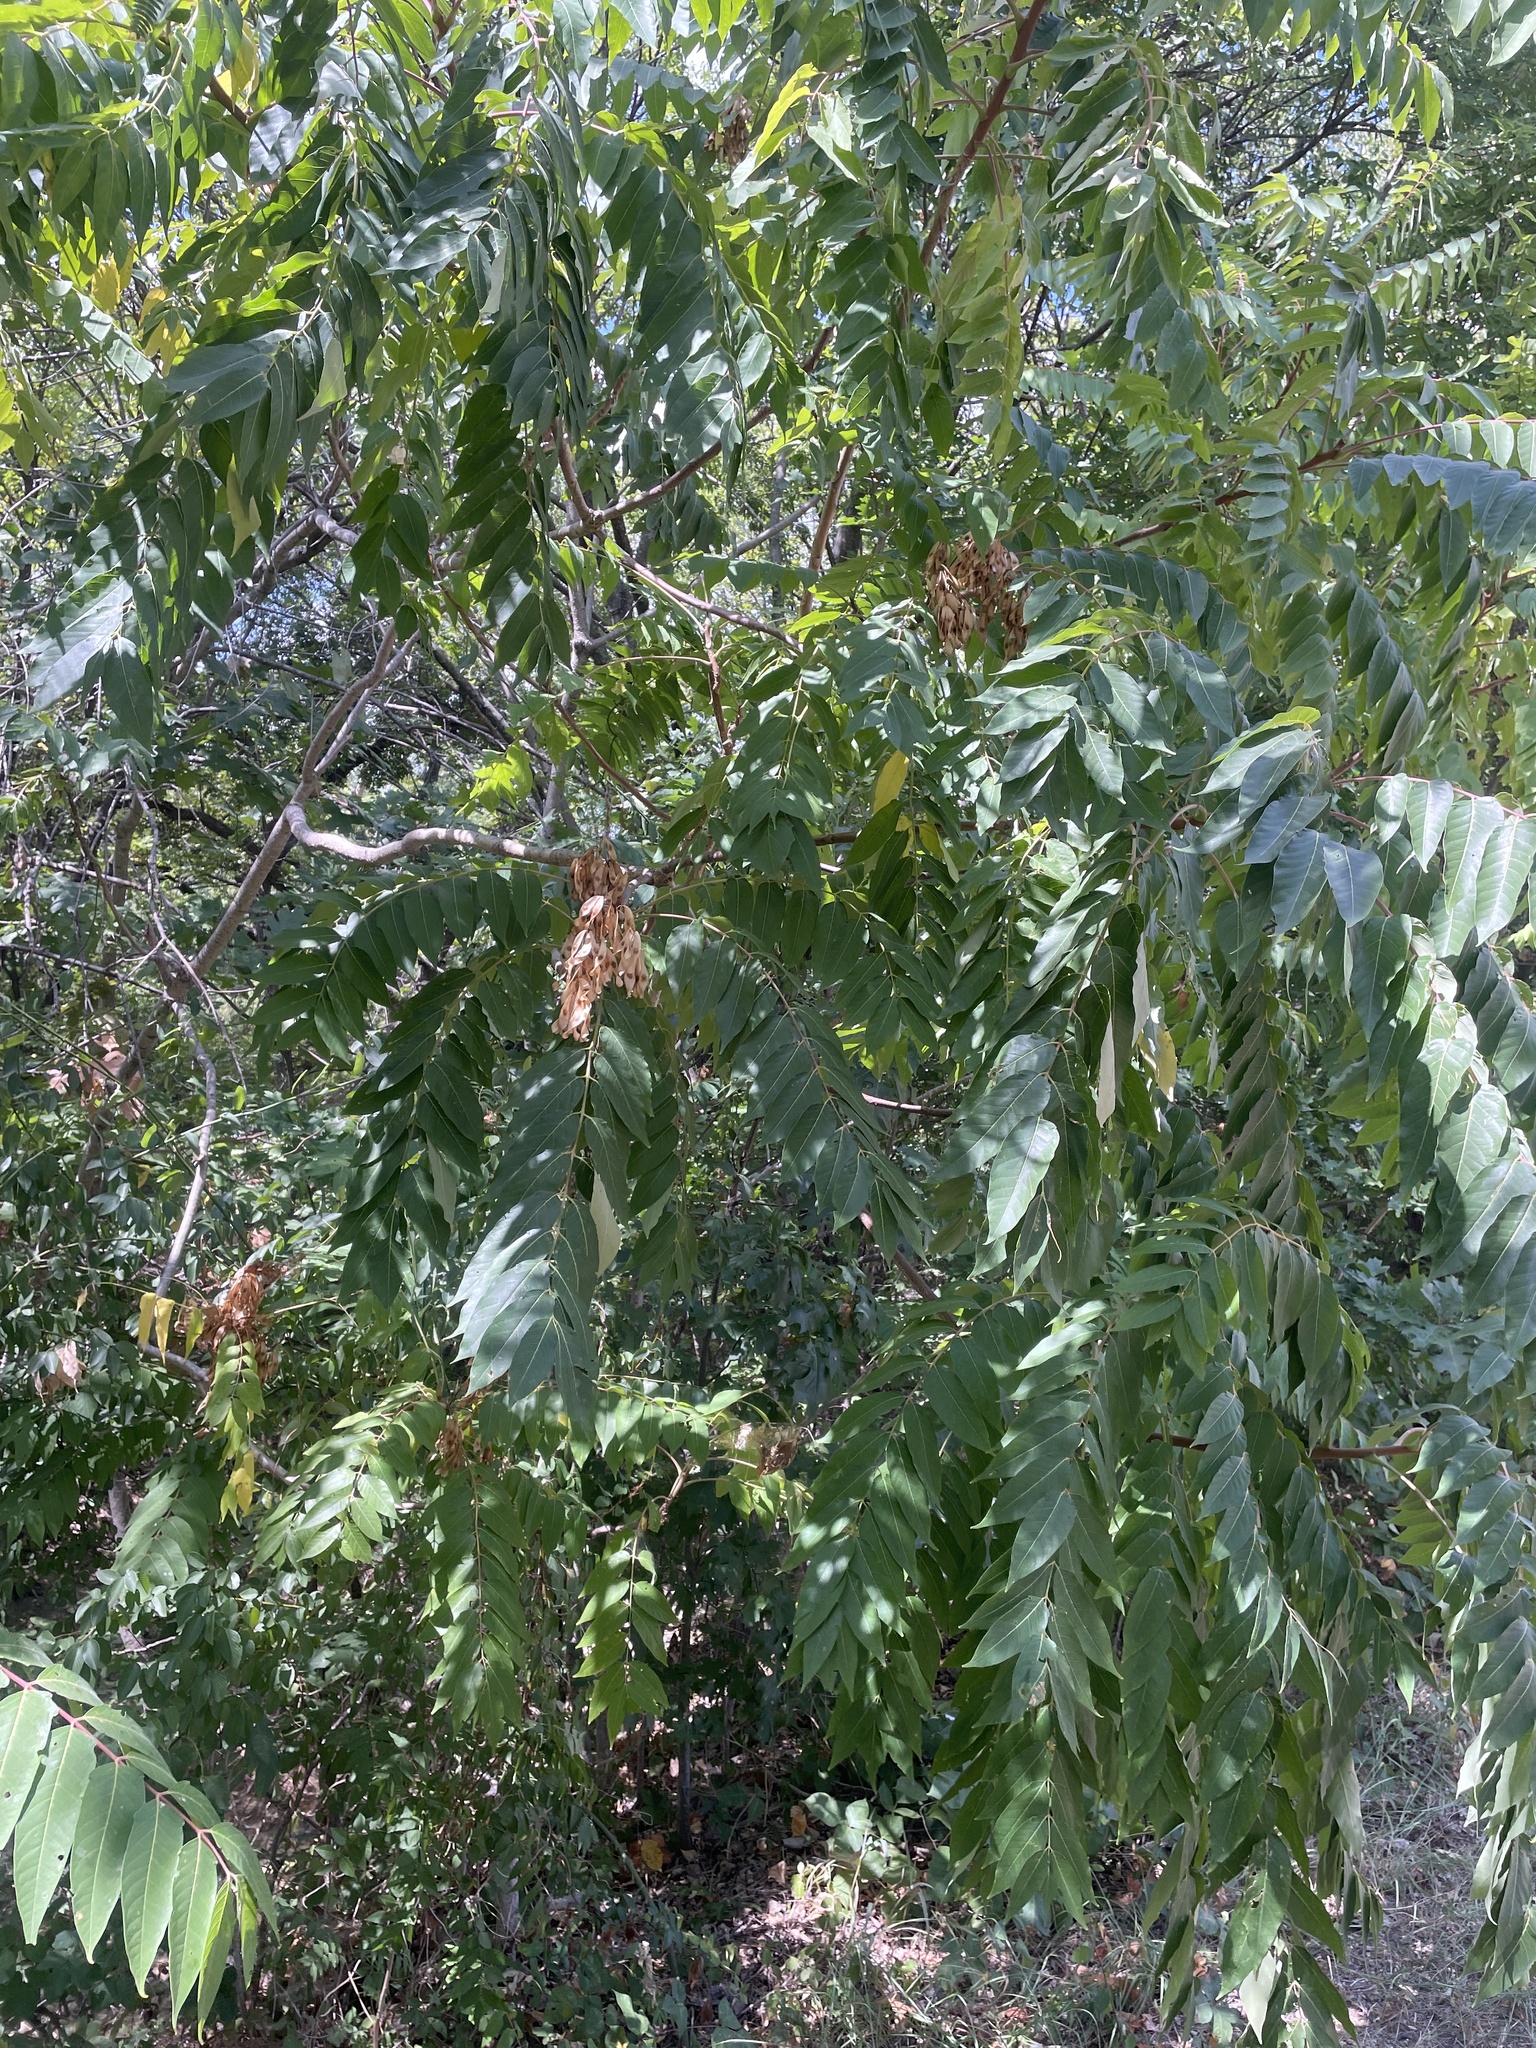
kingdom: Plantae
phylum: Tracheophyta
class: Magnoliopsida
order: Sapindales
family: Simaroubaceae
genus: Ailanthus
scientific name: Ailanthus altissima
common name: Tree-of-heaven
